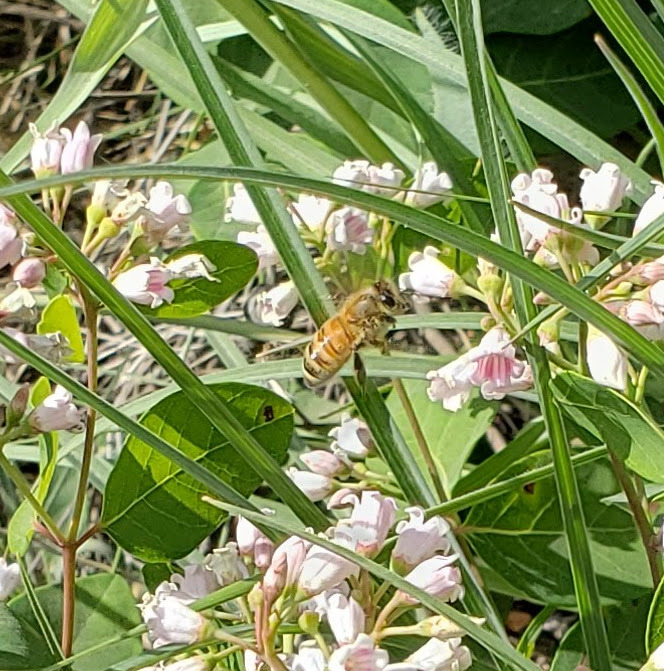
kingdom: Animalia
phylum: Arthropoda
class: Insecta
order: Hymenoptera
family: Apidae
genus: Apis
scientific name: Apis mellifera
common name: Honey bee
